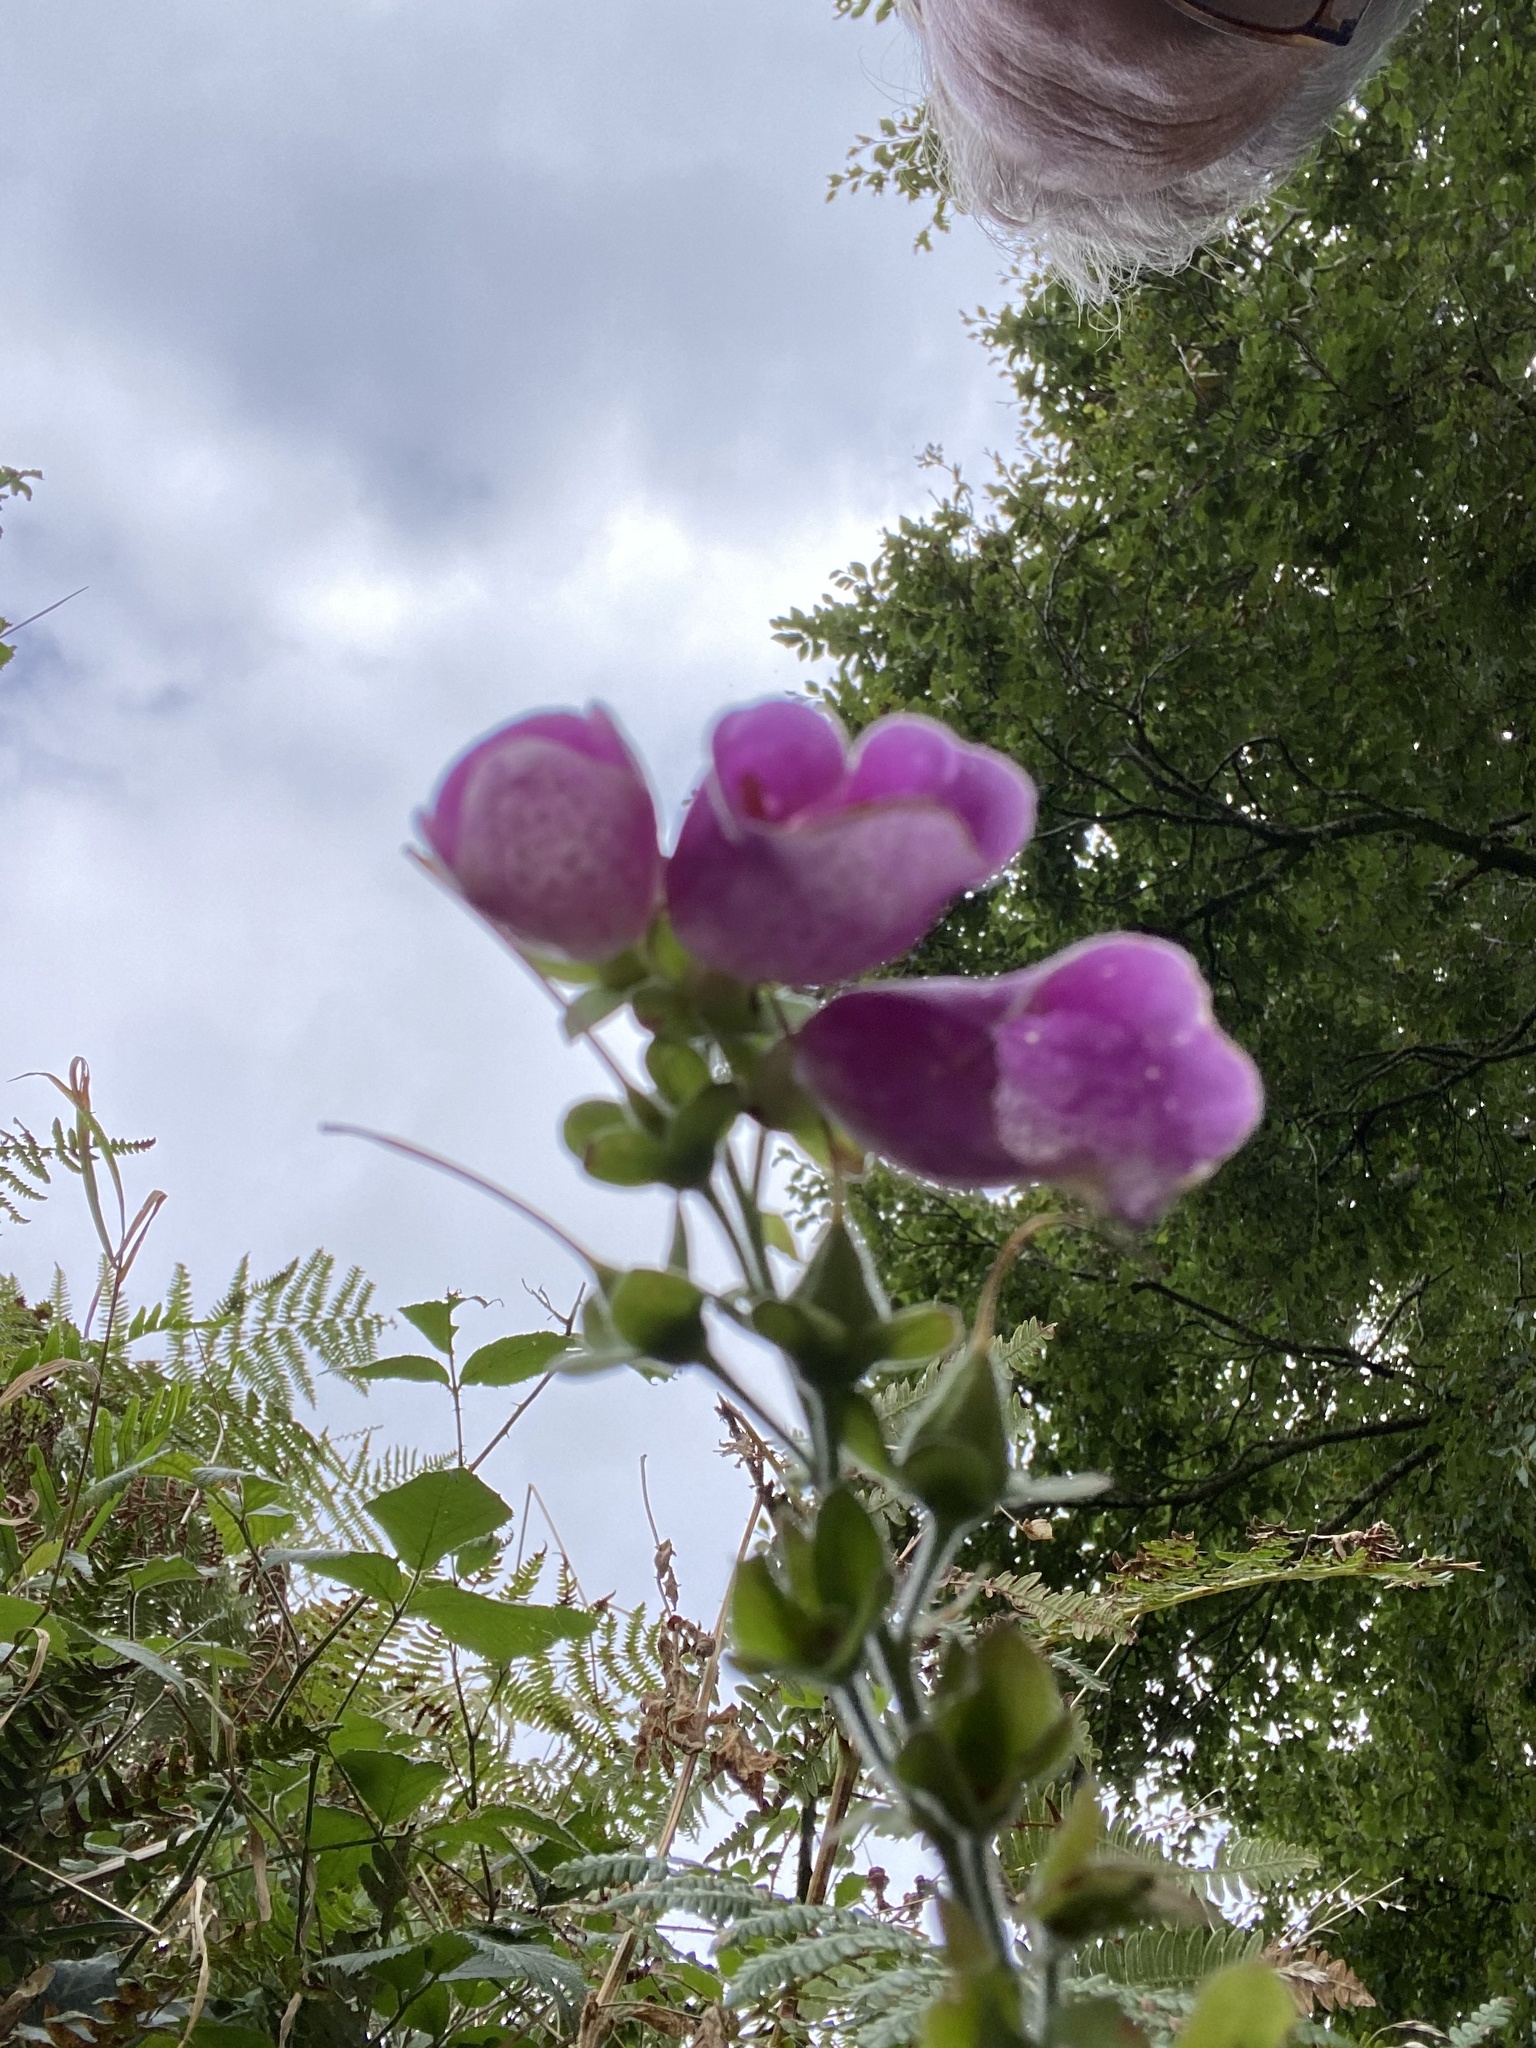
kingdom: Plantae
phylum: Tracheophyta
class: Magnoliopsida
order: Lamiales
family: Plantaginaceae
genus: Digitalis
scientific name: Digitalis purpurea
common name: Foxglove
